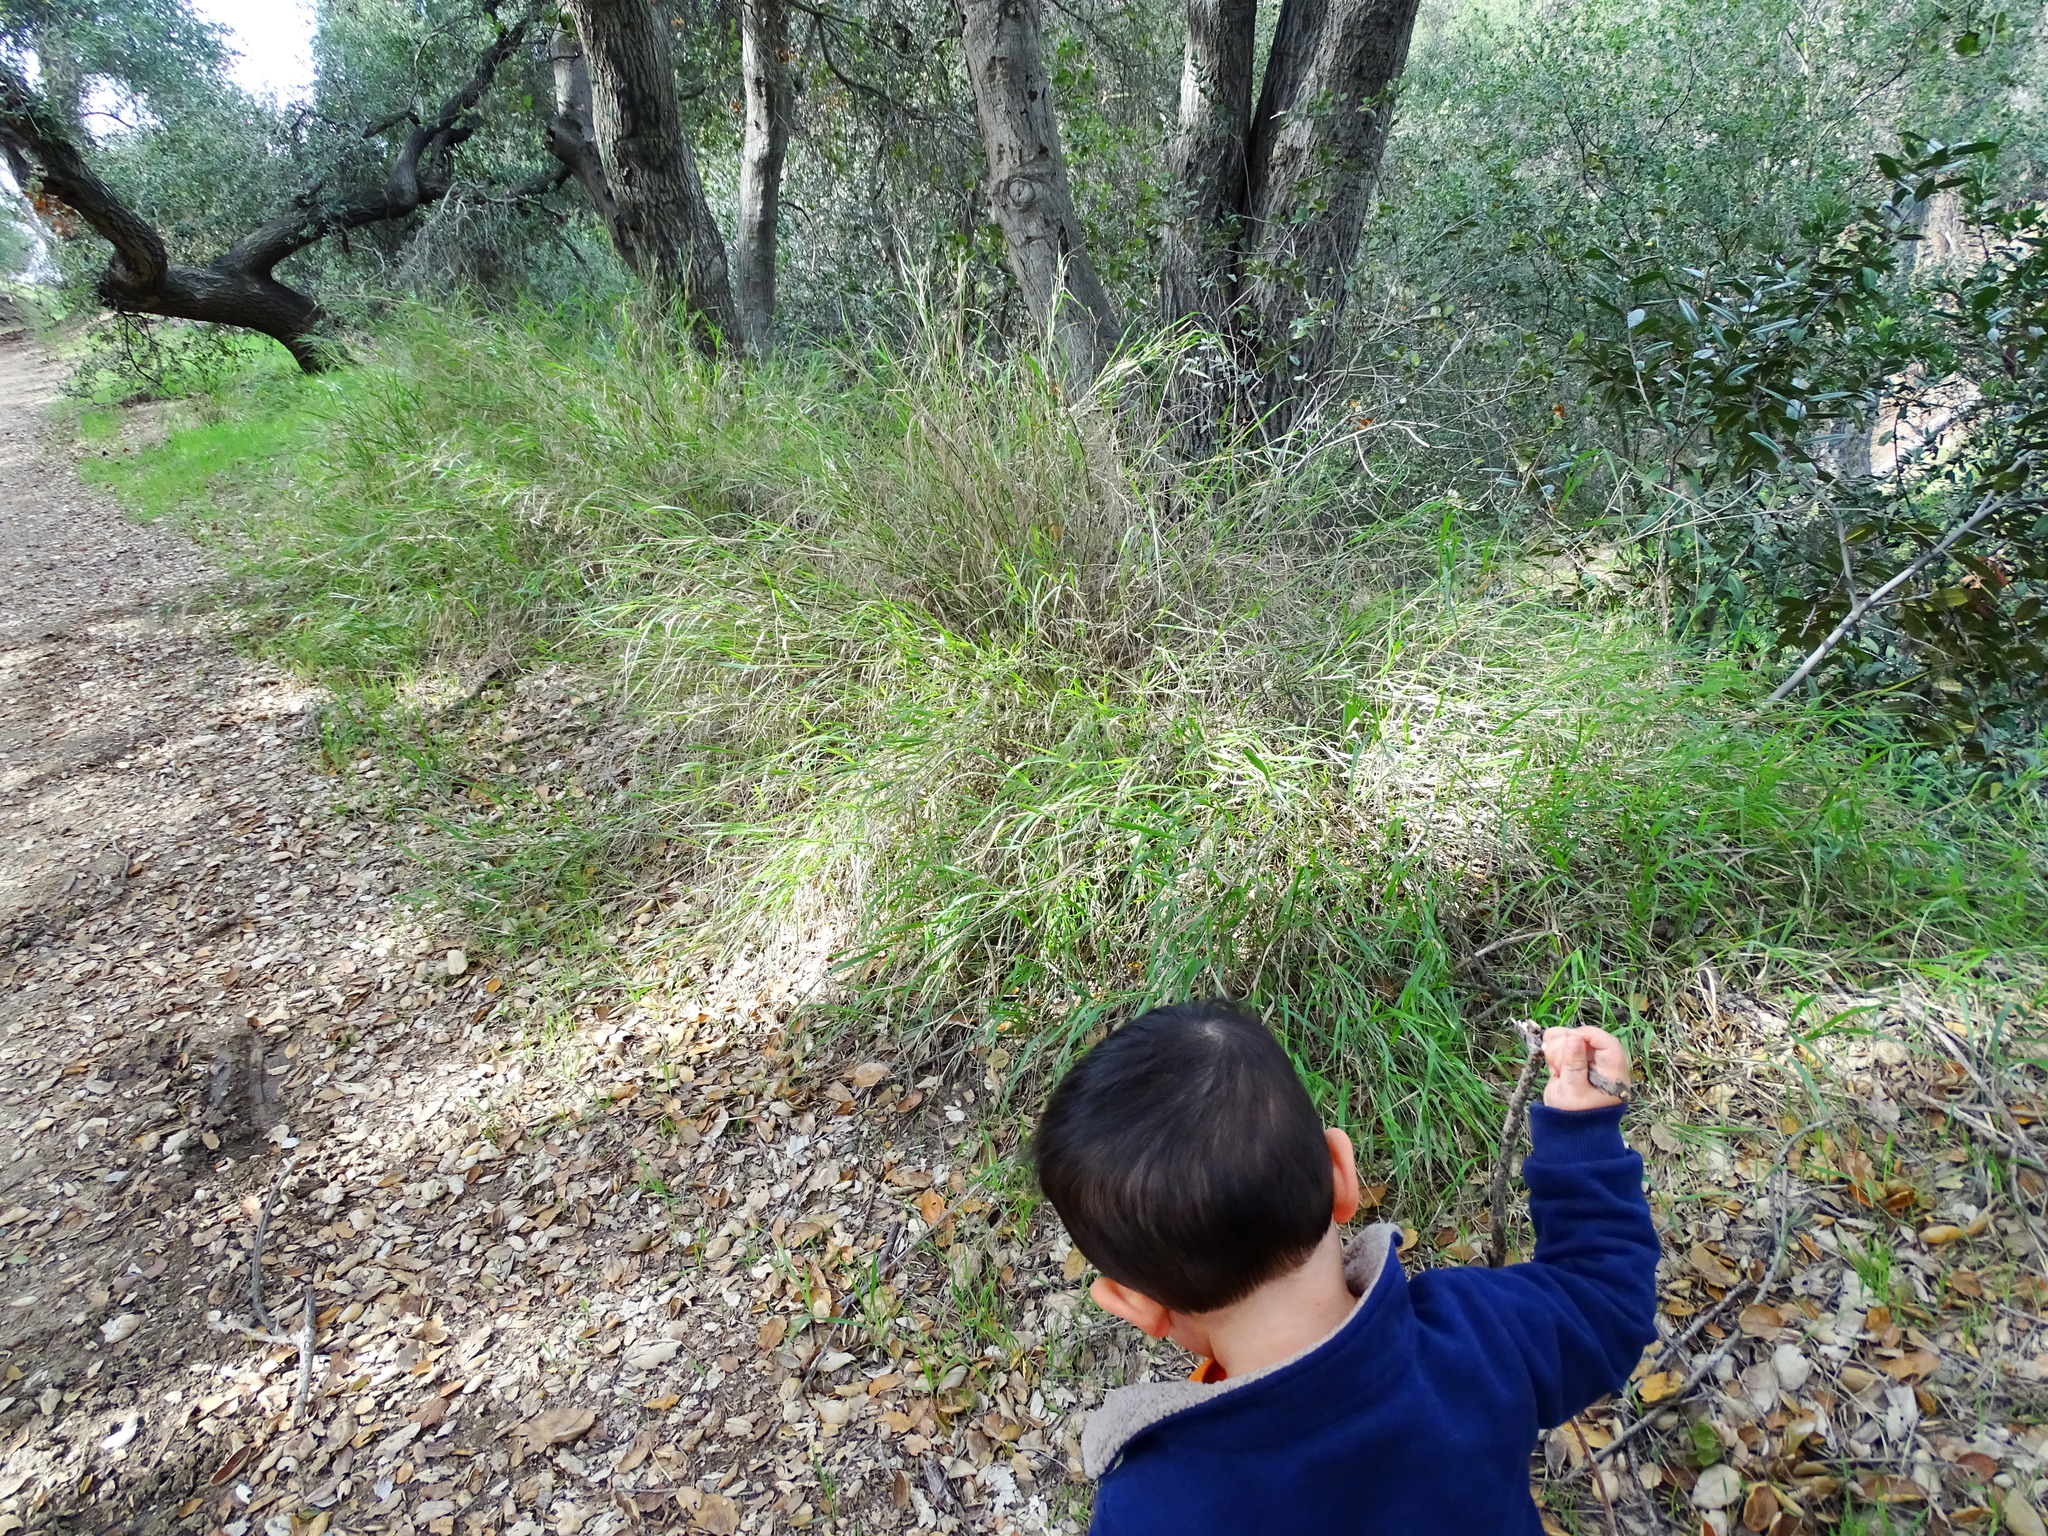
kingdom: Plantae
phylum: Tracheophyta
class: Liliopsida
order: Poales
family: Poaceae
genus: Oloptum
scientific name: Oloptum miliaceum
